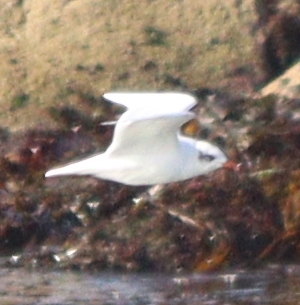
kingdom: Animalia
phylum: Chordata
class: Aves
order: Charadriiformes
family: Laridae
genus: Ichthyaetus
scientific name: Ichthyaetus melanocephalus
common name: Mediterranean gull
